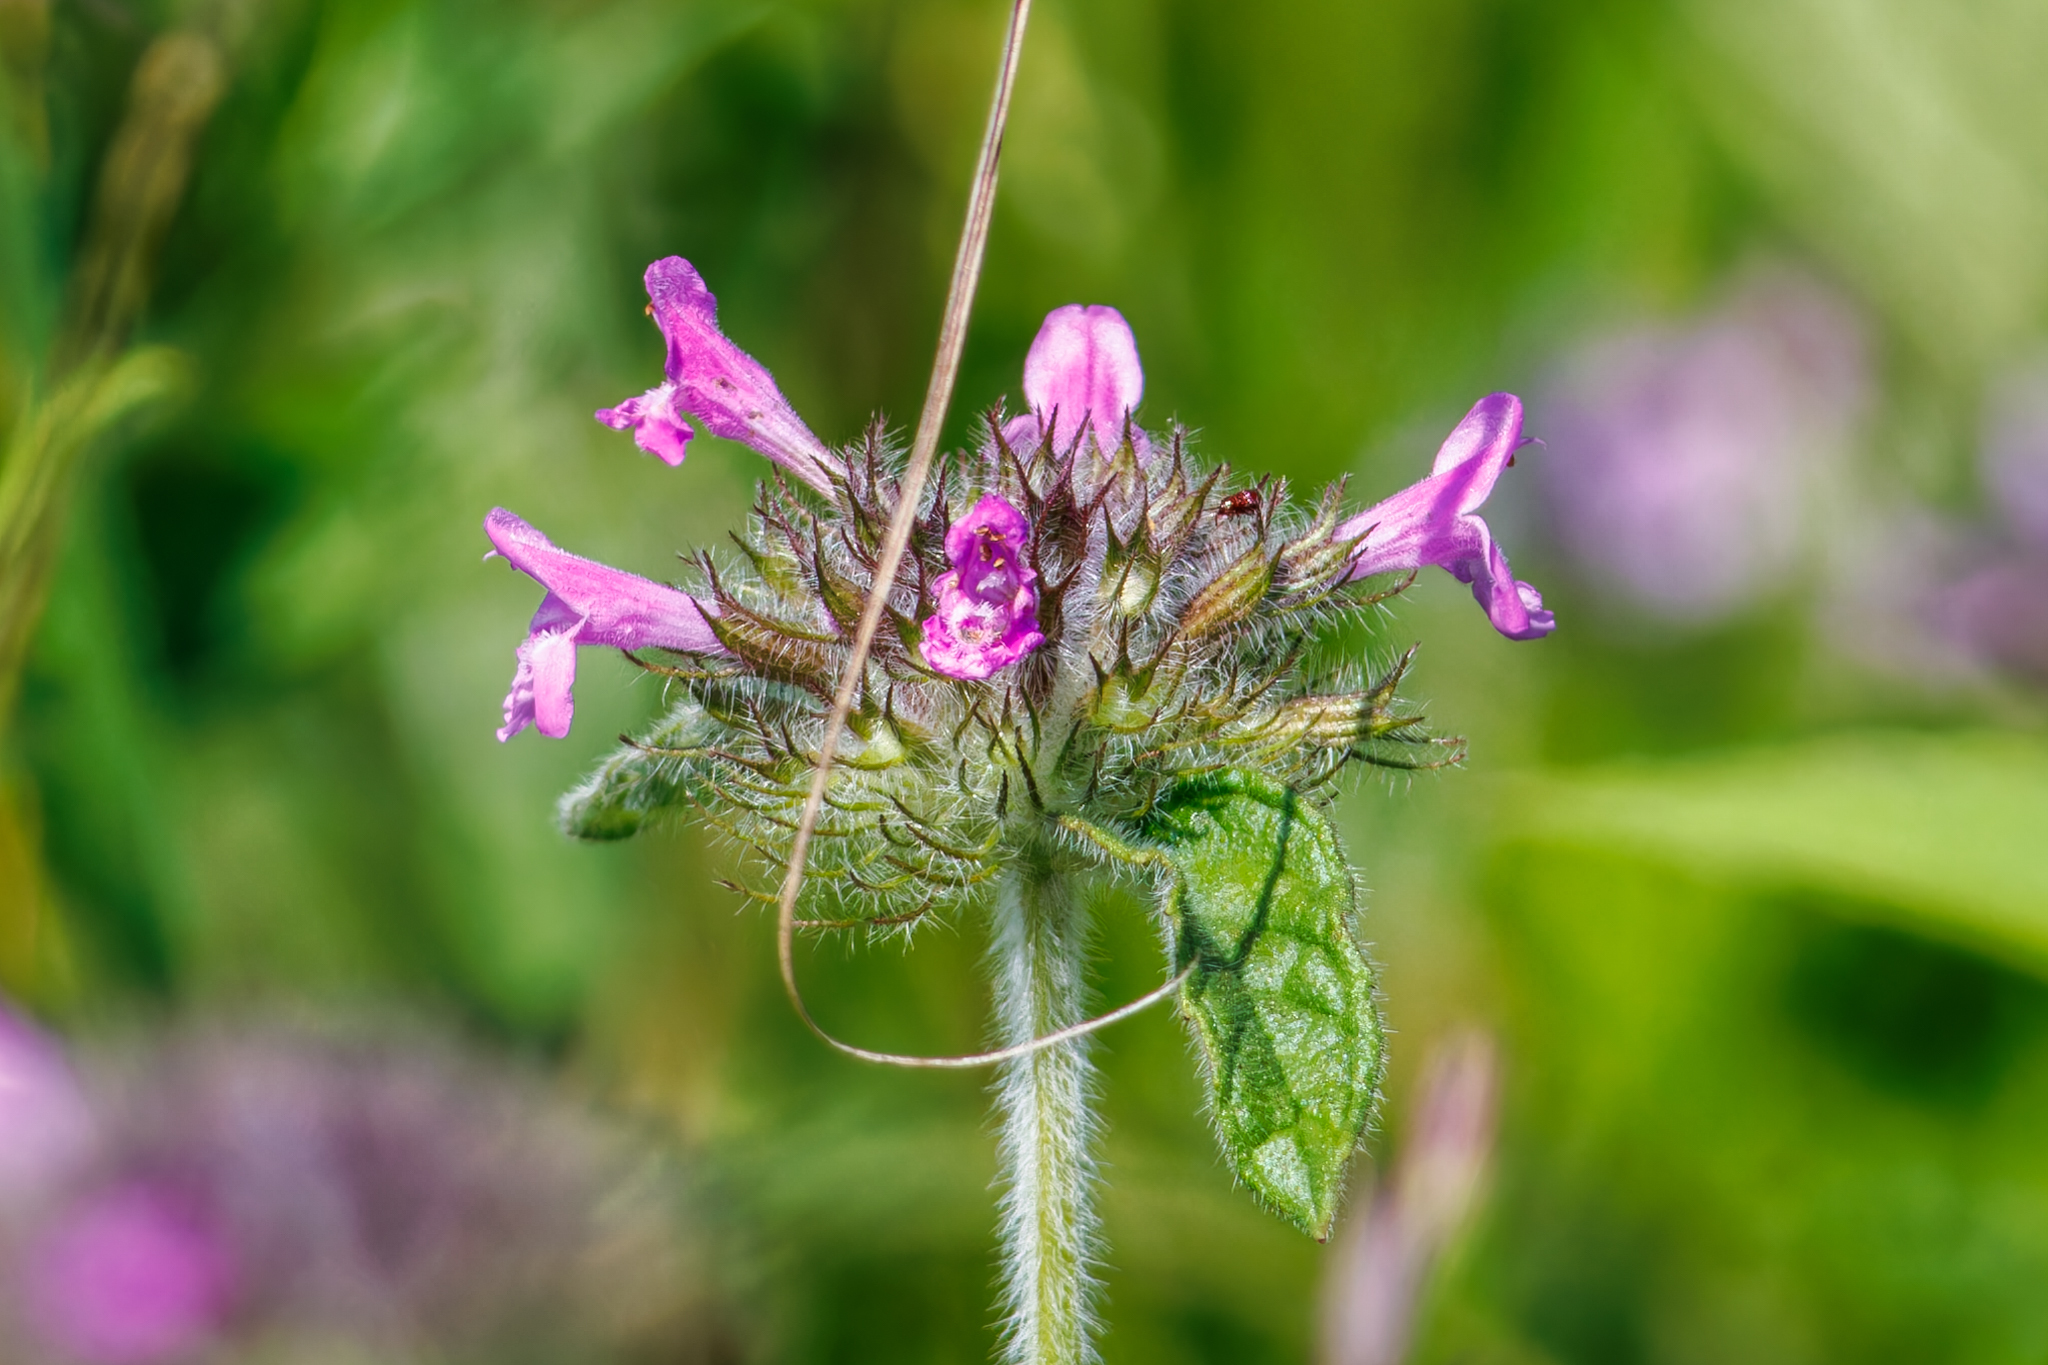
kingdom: Plantae
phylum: Tracheophyta
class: Magnoliopsida
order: Lamiales
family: Lamiaceae
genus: Clinopodium
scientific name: Clinopodium vulgare
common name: Wild basil
